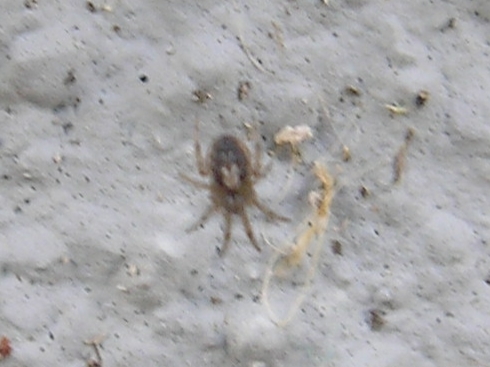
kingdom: Animalia
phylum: Arthropoda
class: Arachnida
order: Araneae
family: Araneidae
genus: Zygiella
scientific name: Zygiella x-notata
